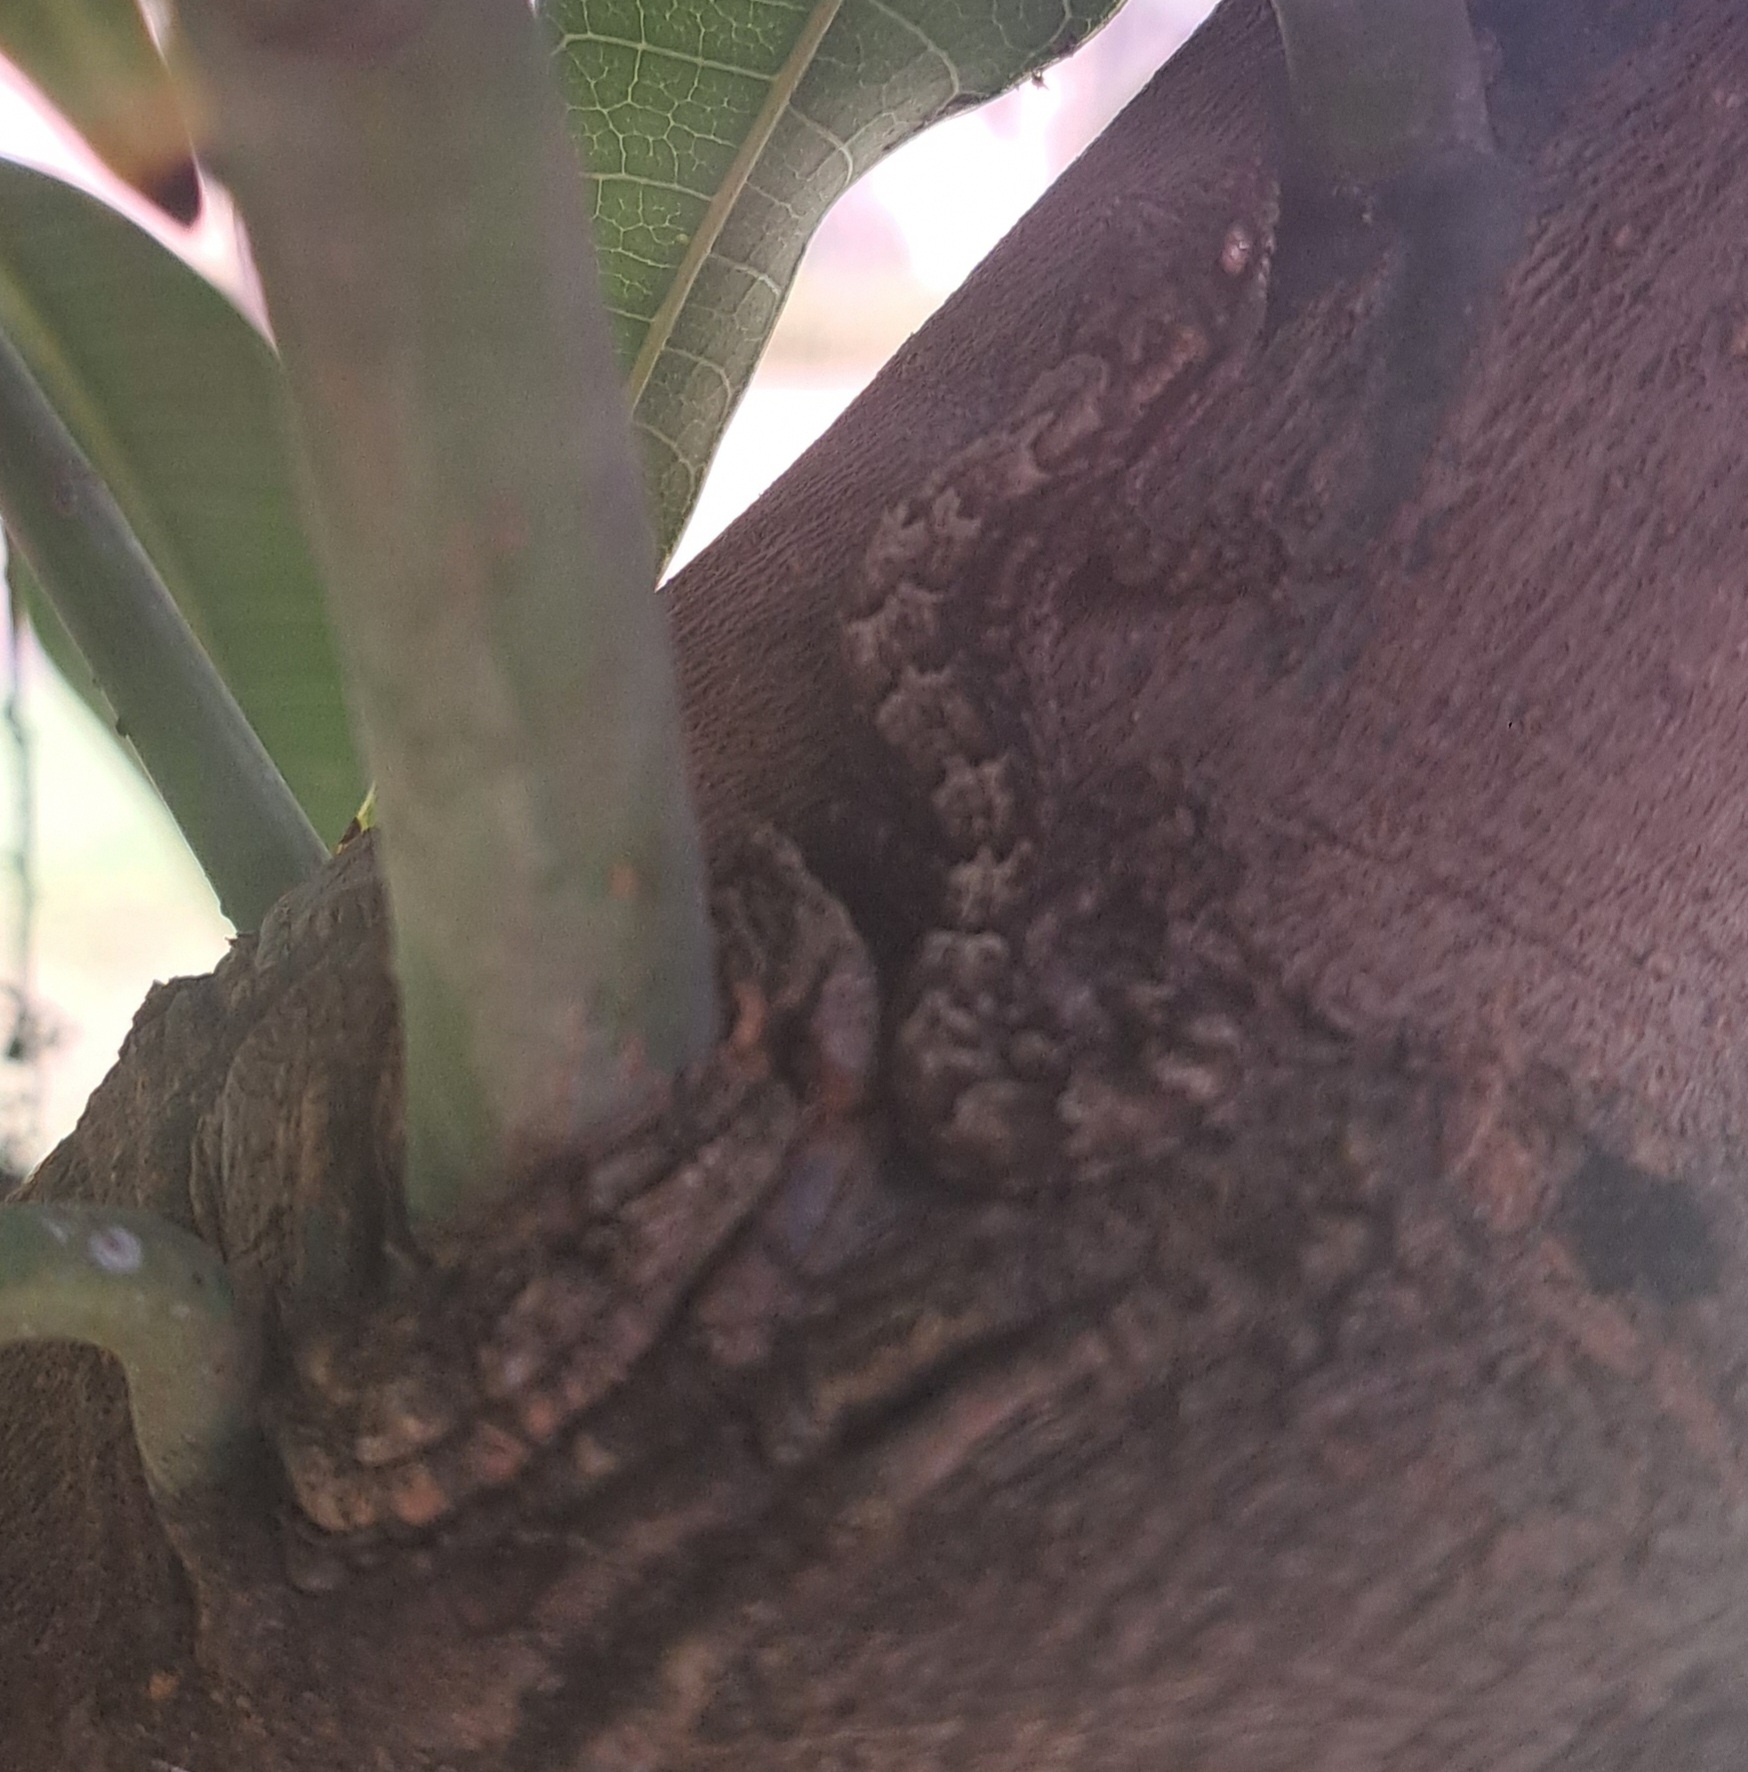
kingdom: Animalia
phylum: Chordata
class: Squamata
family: Gekkonidae
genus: Lepidodactylus
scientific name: Lepidodactylus lugubris
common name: Mourning gecko
